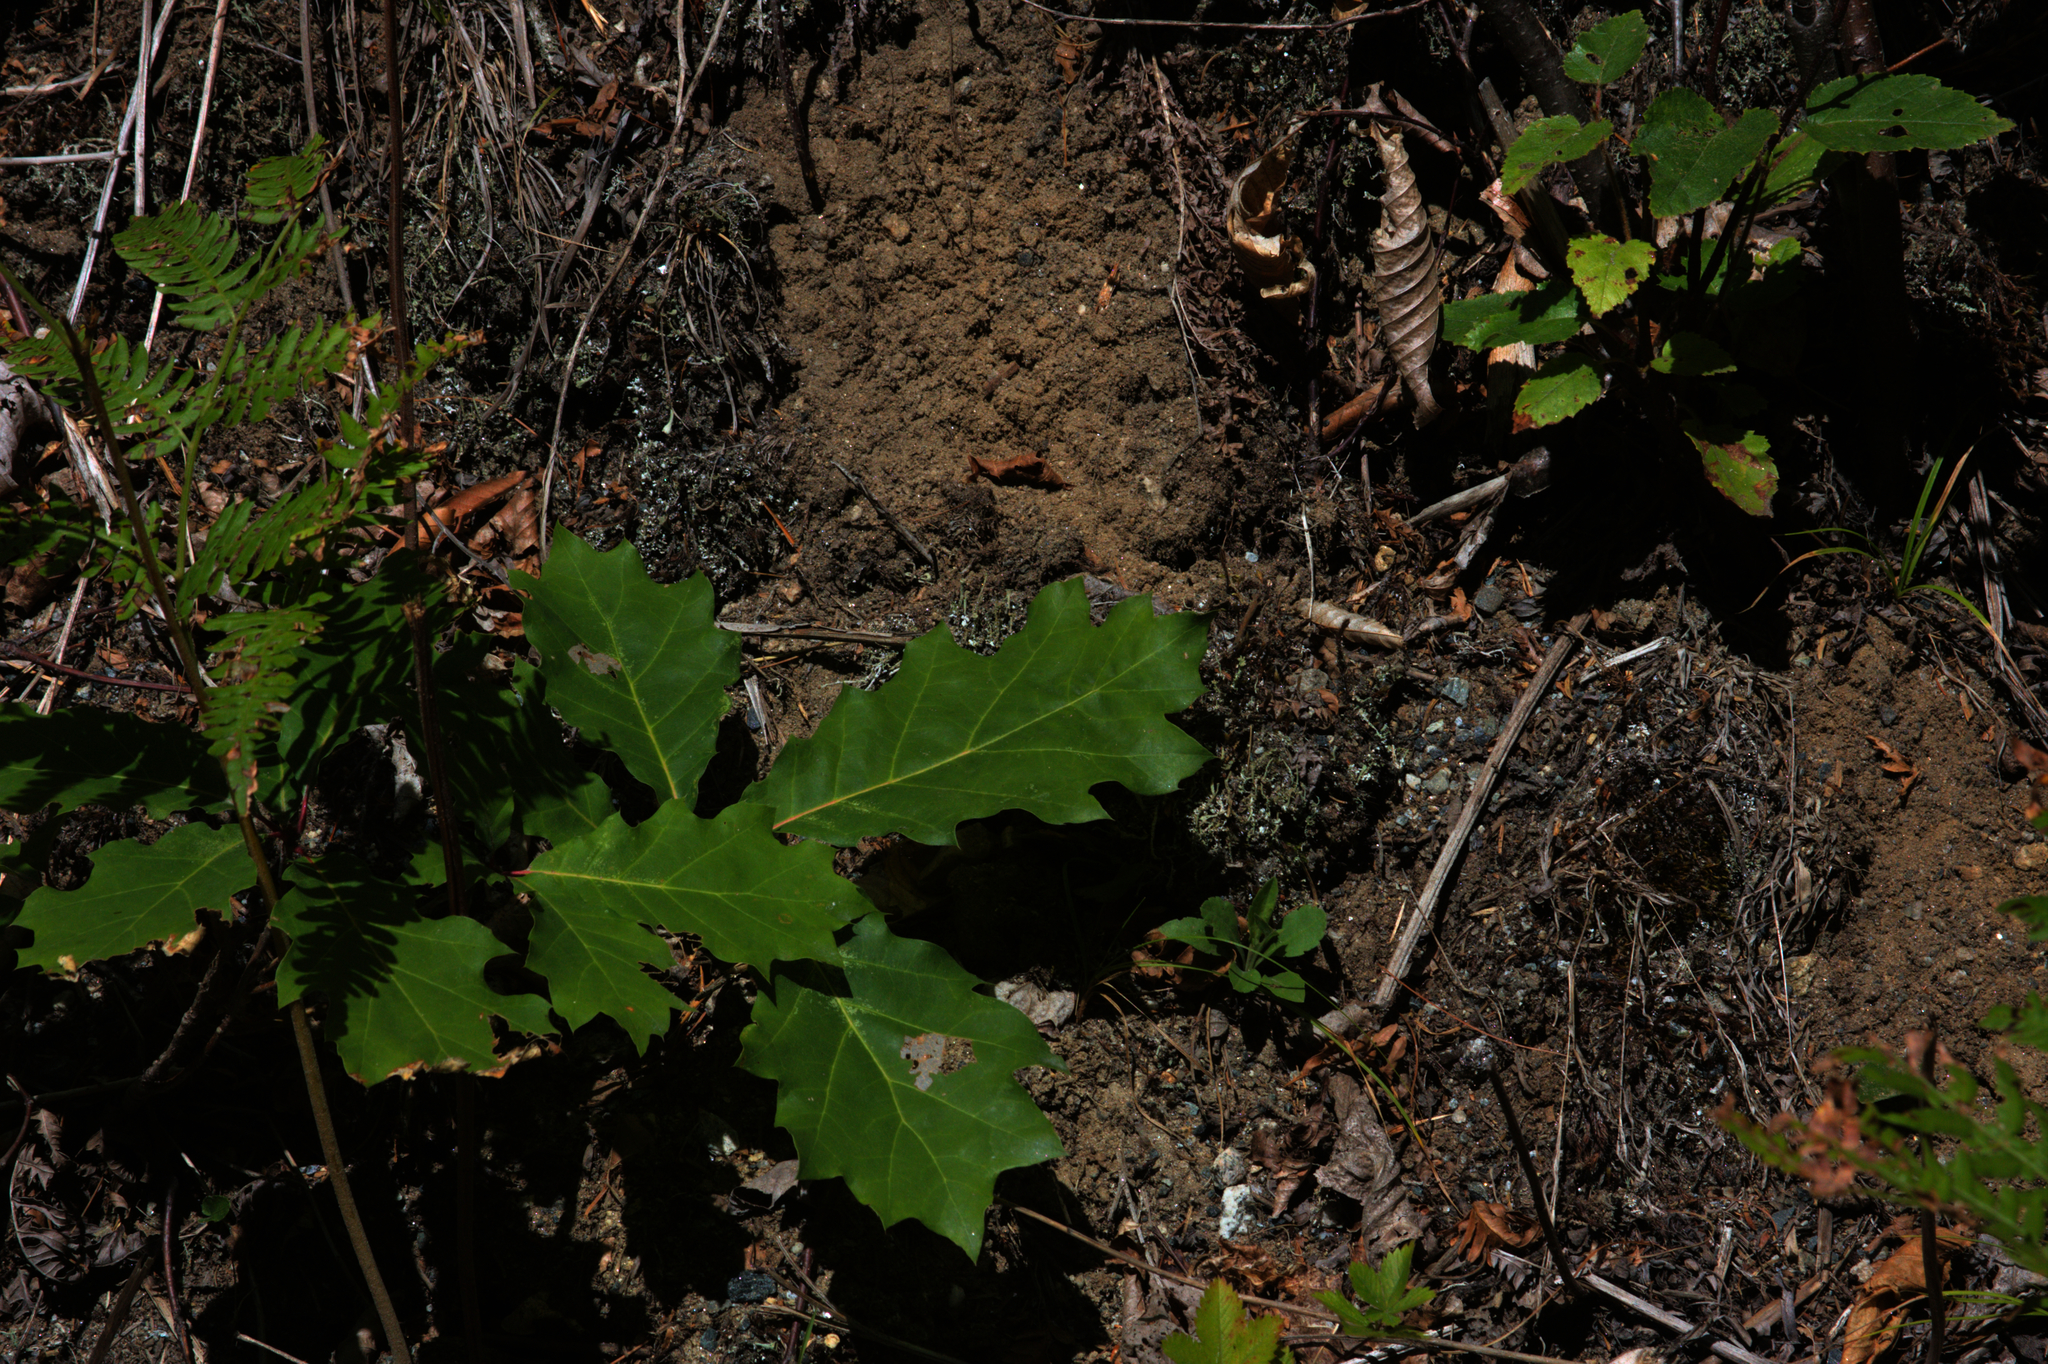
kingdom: Plantae
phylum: Tracheophyta
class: Magnoliopsida
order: Fagales
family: Fagaceae
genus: Quercus
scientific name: Quercus rubra
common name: Red oak
